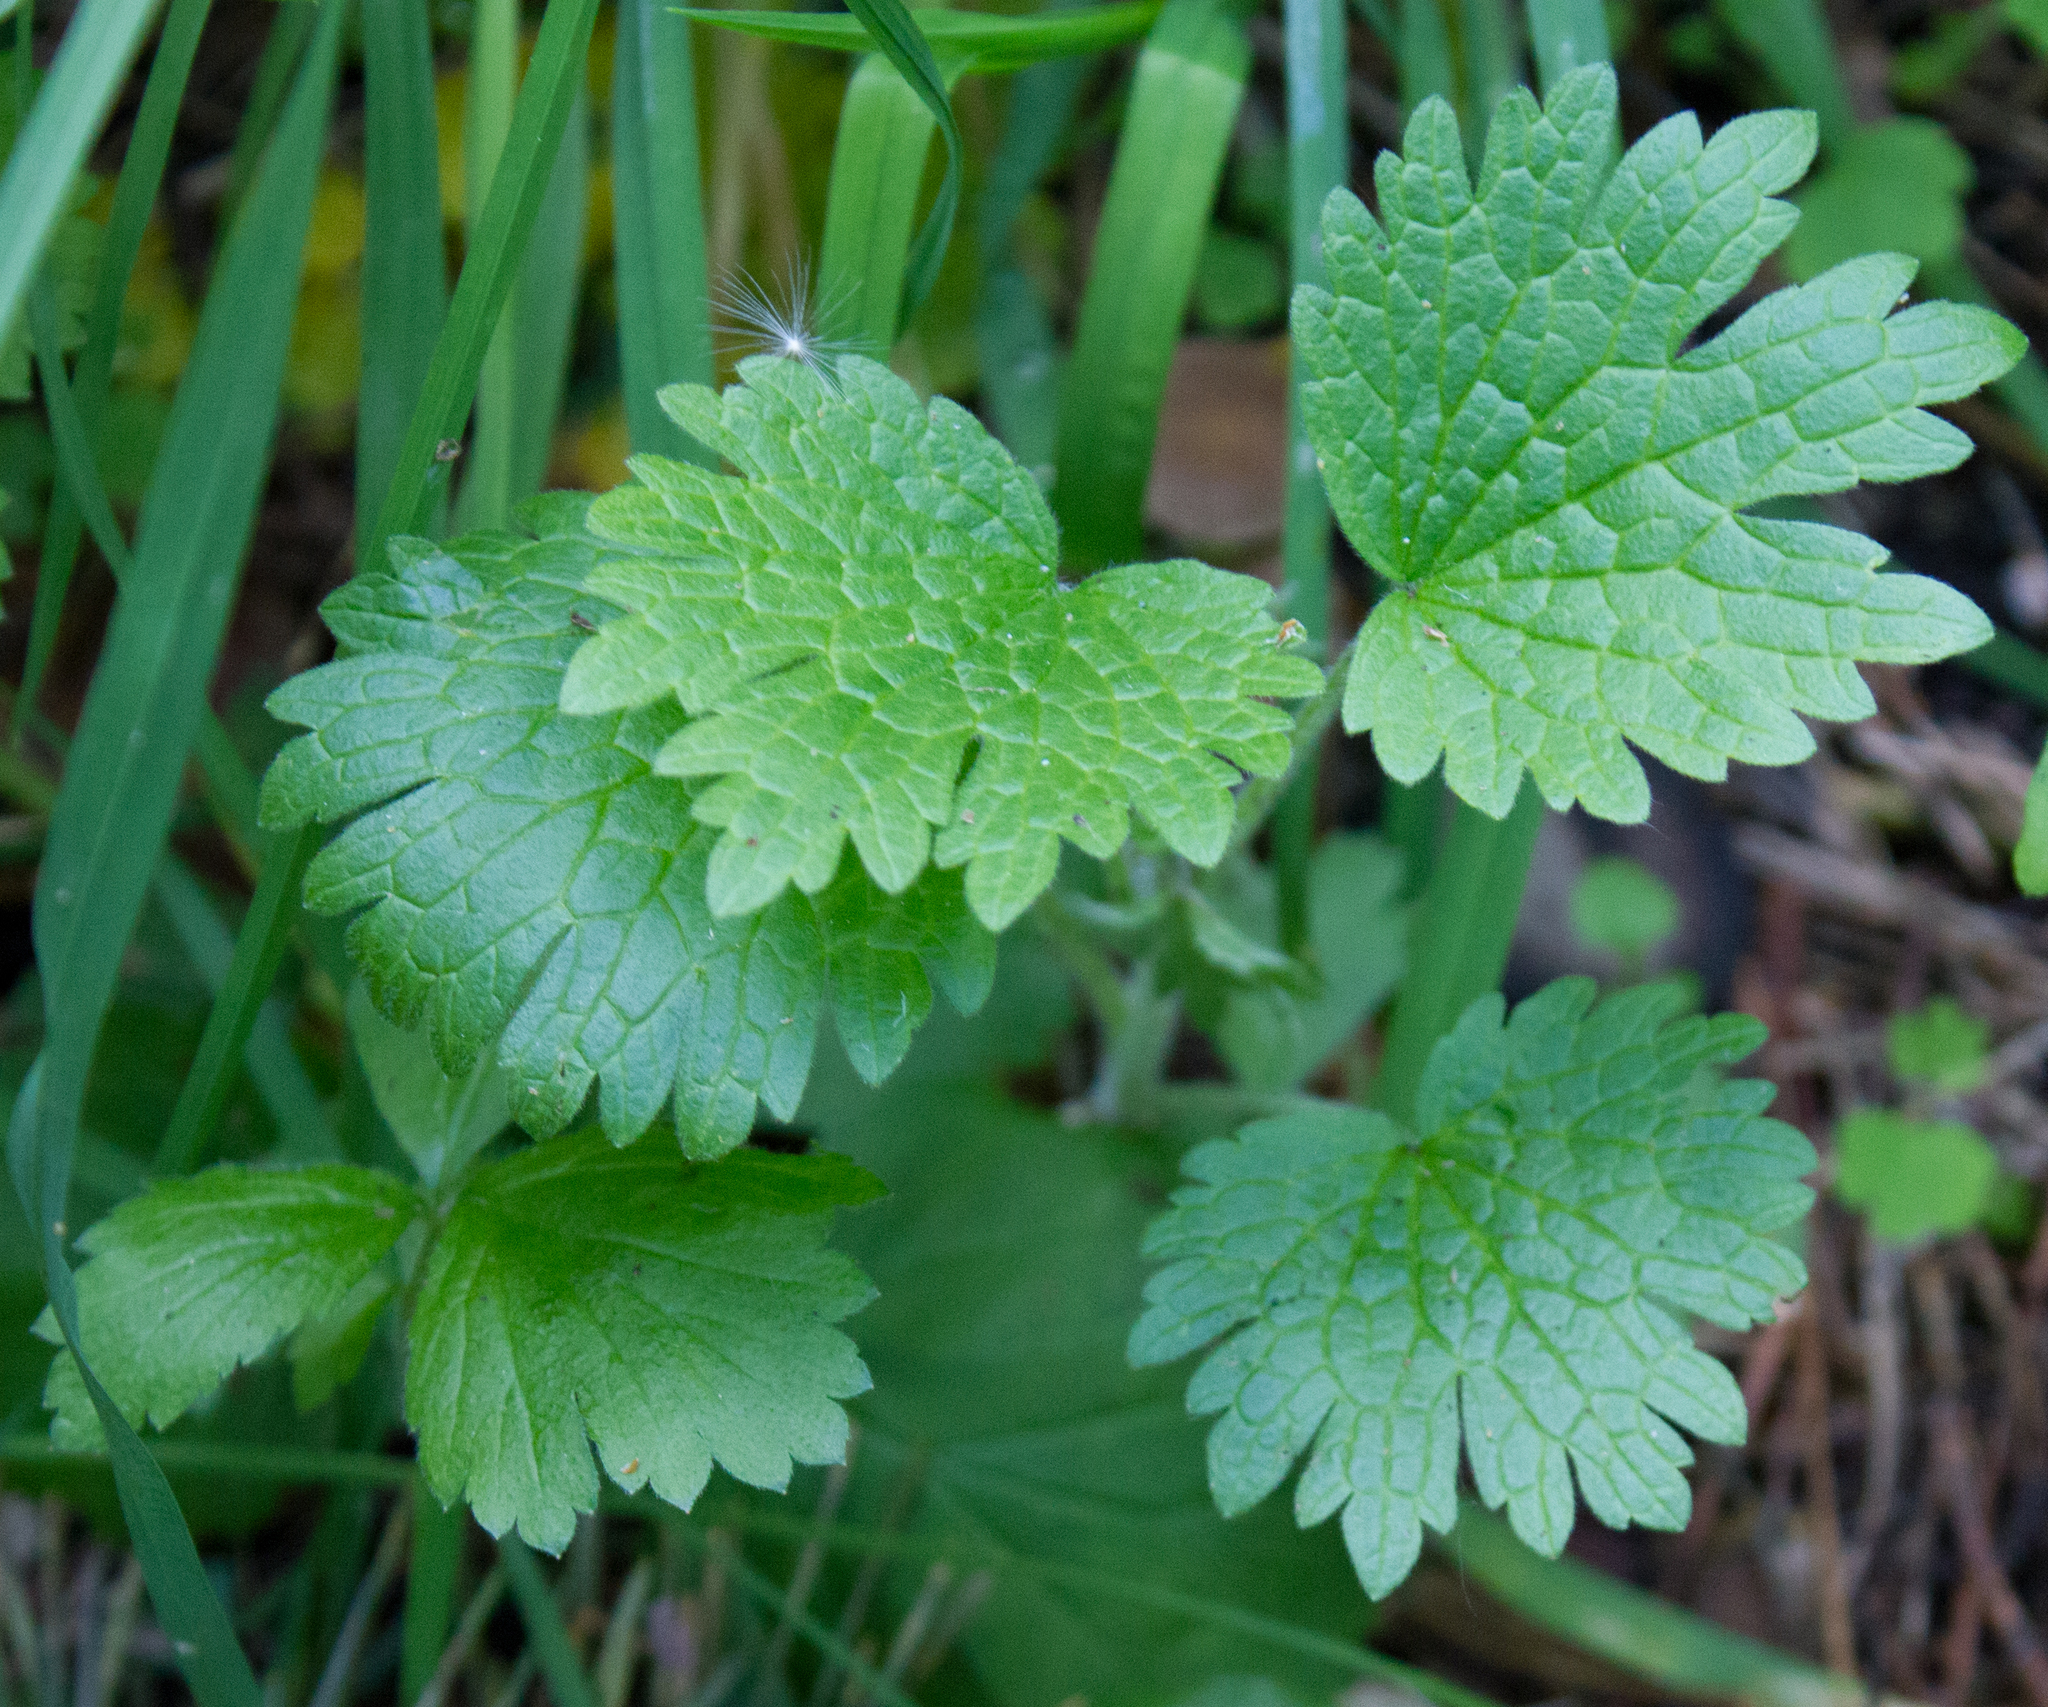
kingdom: Plantae
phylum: Tracheophyta
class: Magnoliopsida
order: Lamiales
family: Lamiaceae
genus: Leonurus
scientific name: Leonurus quinquelobatus
